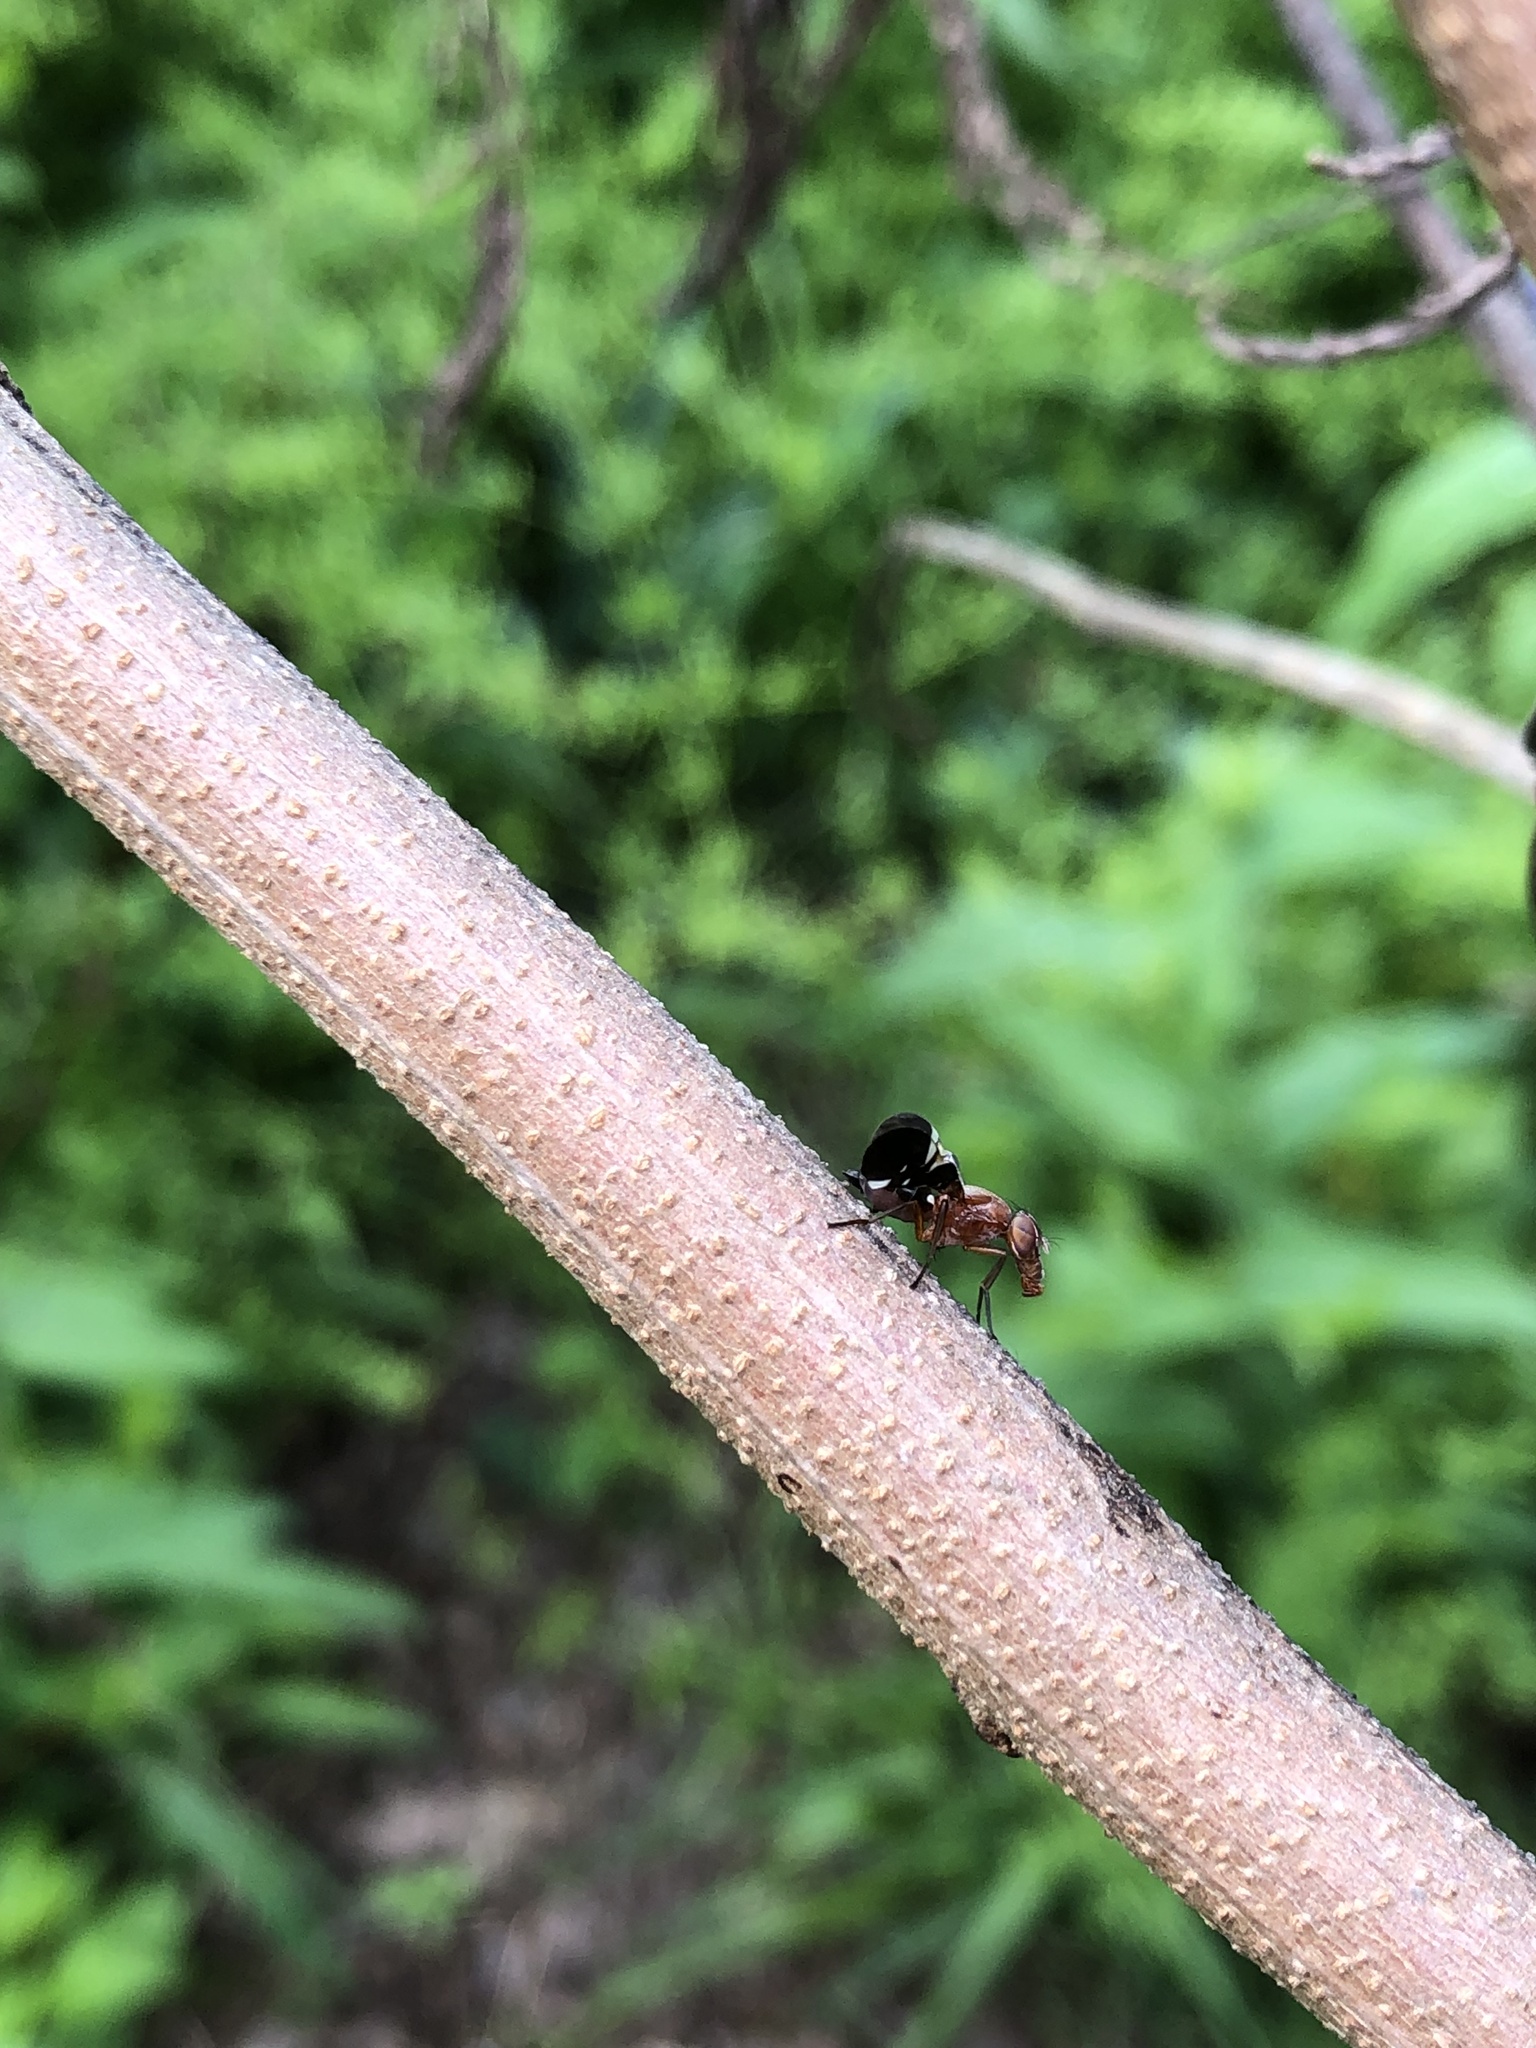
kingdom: Animalia
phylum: Arthropoda
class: Insecta
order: Diptera
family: Ulidiidae
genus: Delphinia
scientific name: Delphinia picta
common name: Common picture-winged fly
